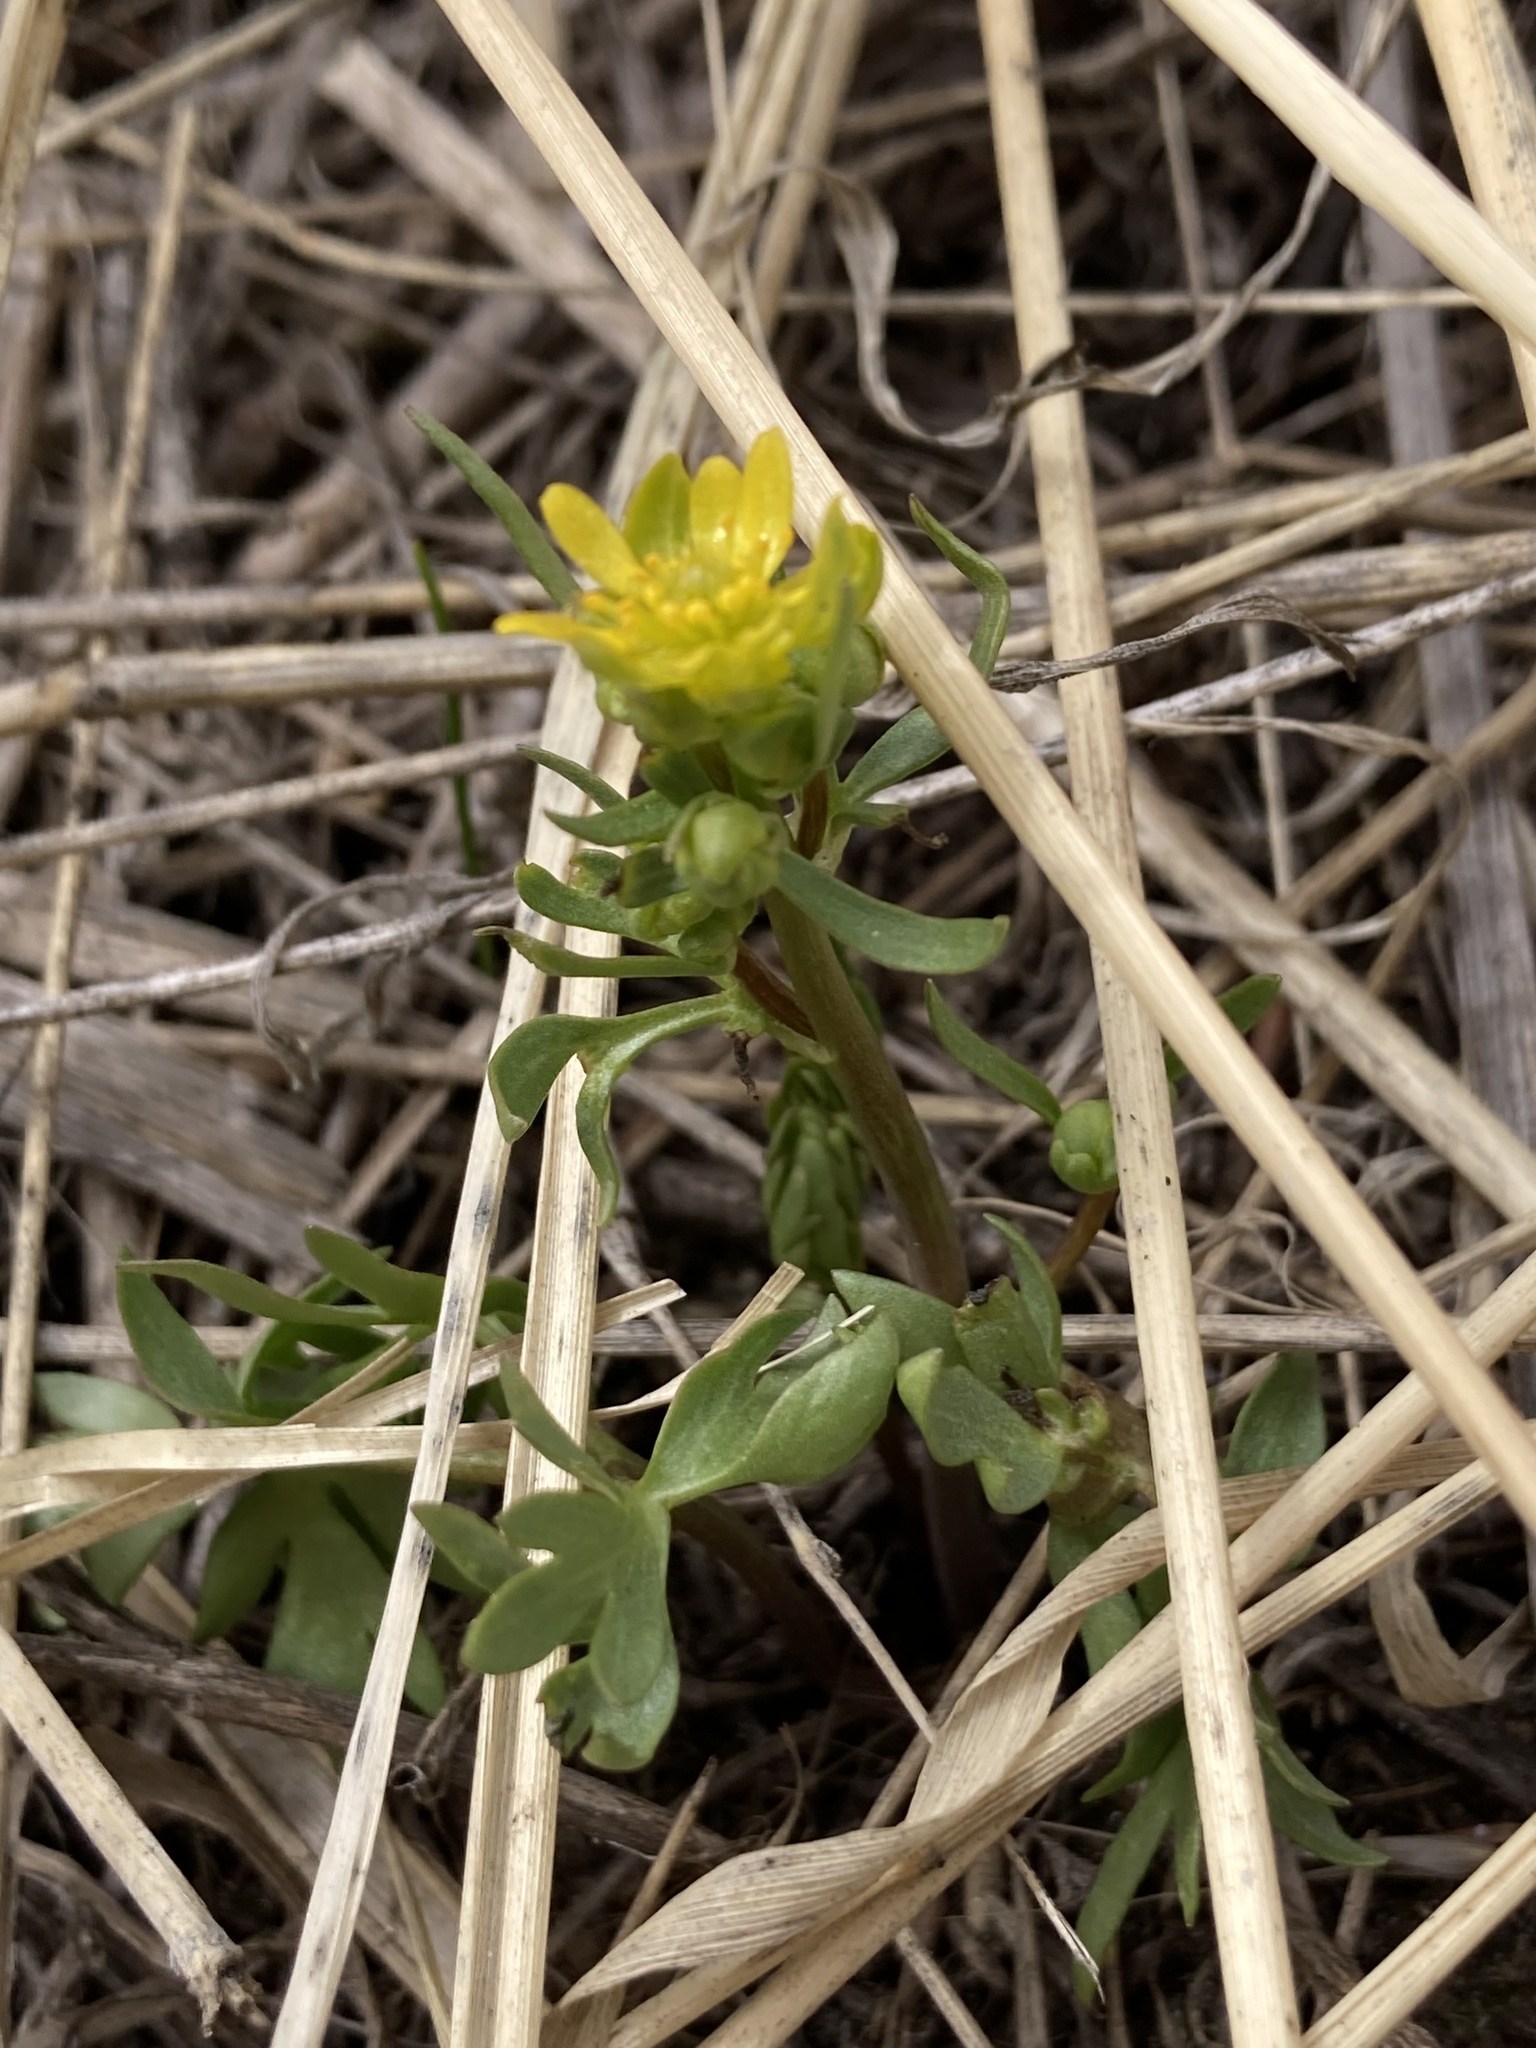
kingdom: Plantae
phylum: Tracheophyta
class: Magnoliopsida
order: Ranunculales
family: Ranunculaceae
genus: Cyrtorhyncha
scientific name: Cyrtorhyncha ranunculina
